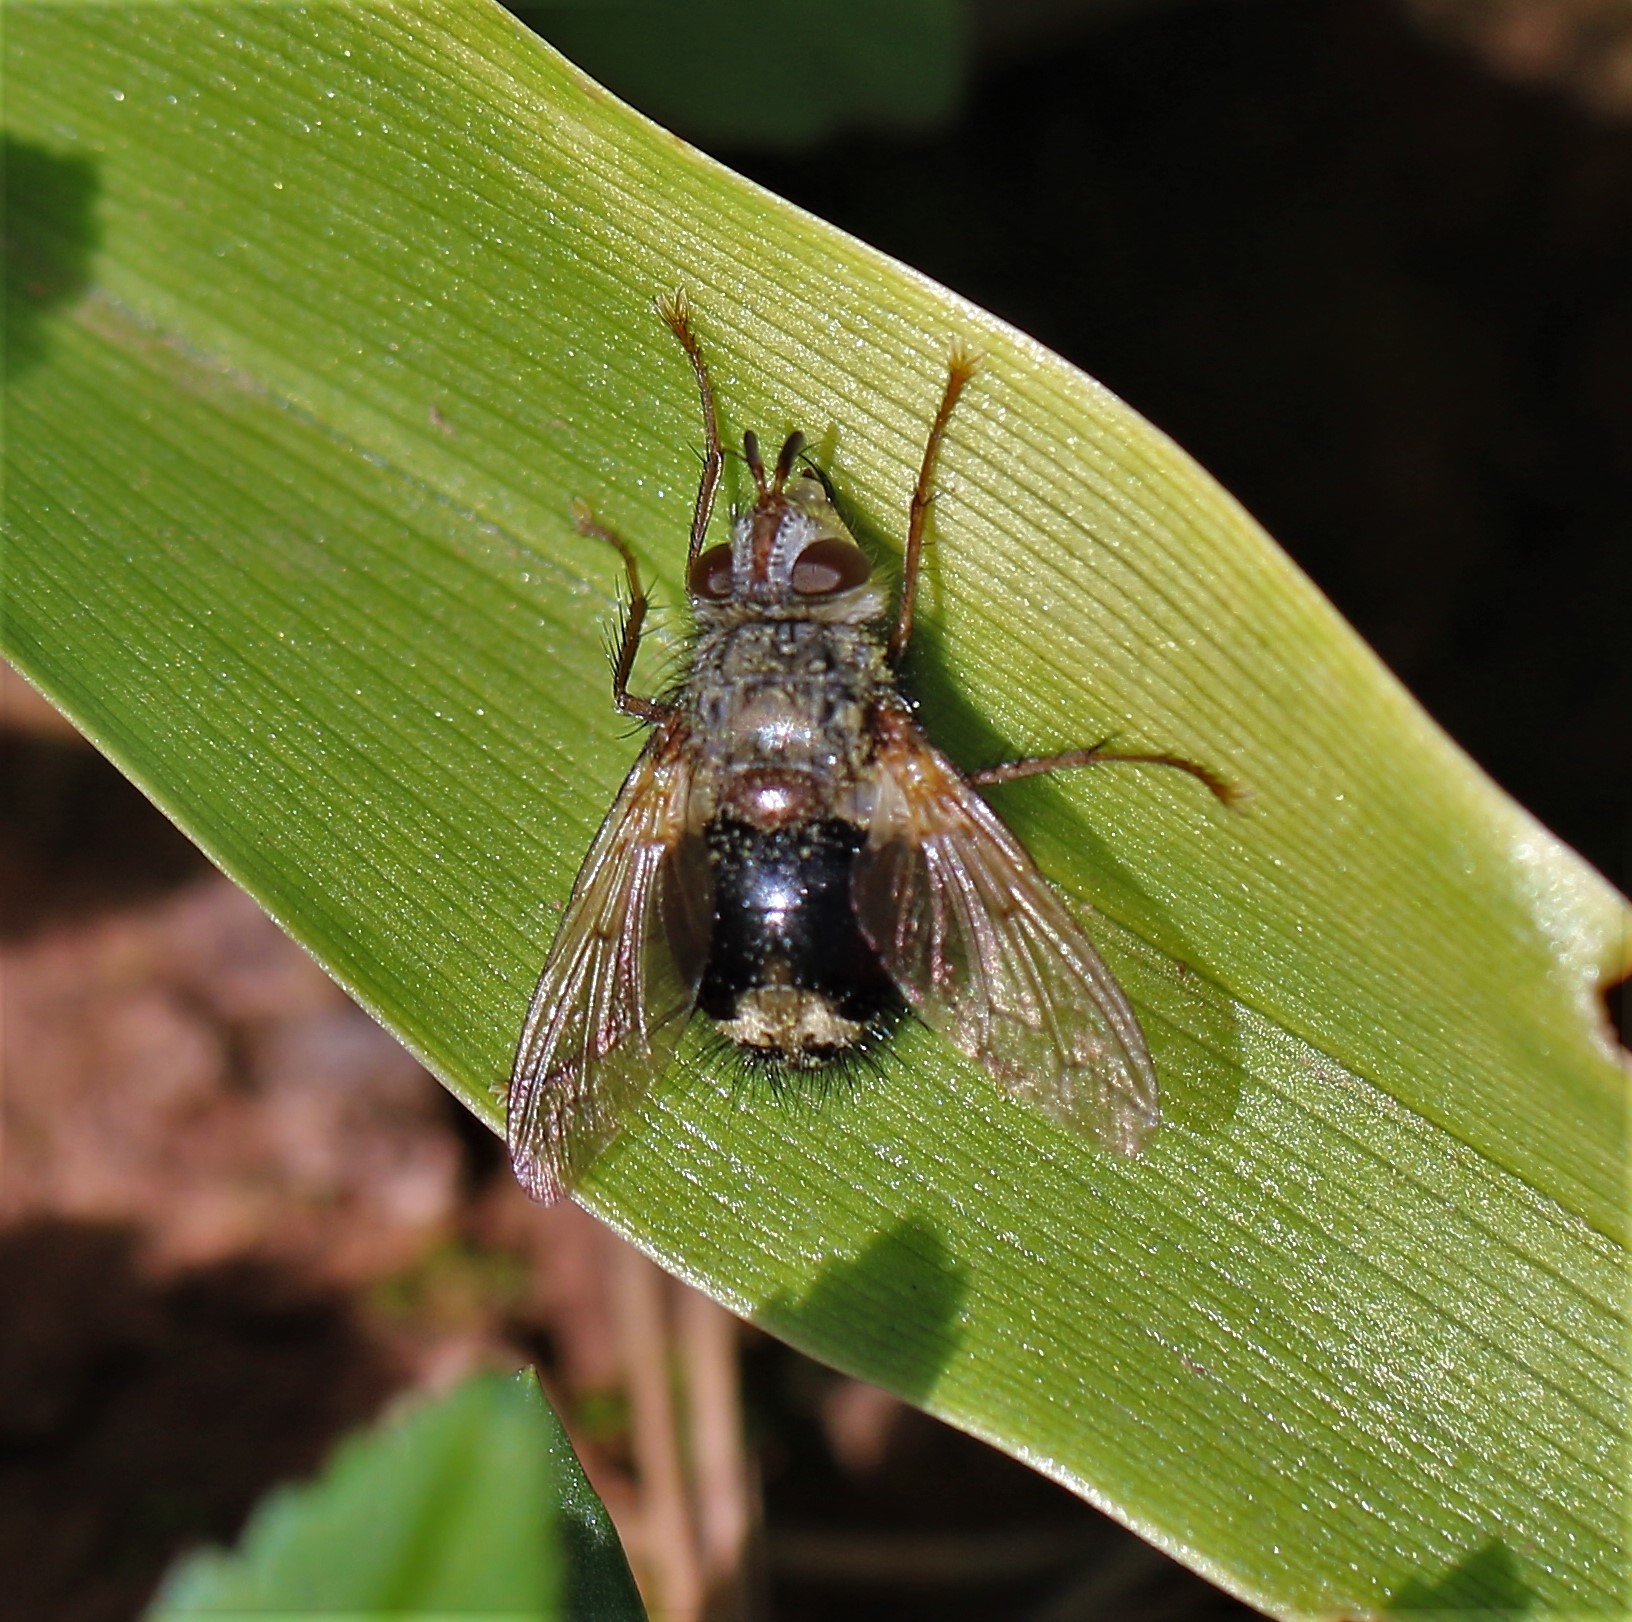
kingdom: Animalia
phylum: Arthropoda
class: Insecta
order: Diptera
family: Tachinidae
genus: Epalpus
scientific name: Epalpus signifer
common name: Early tachinid fly
